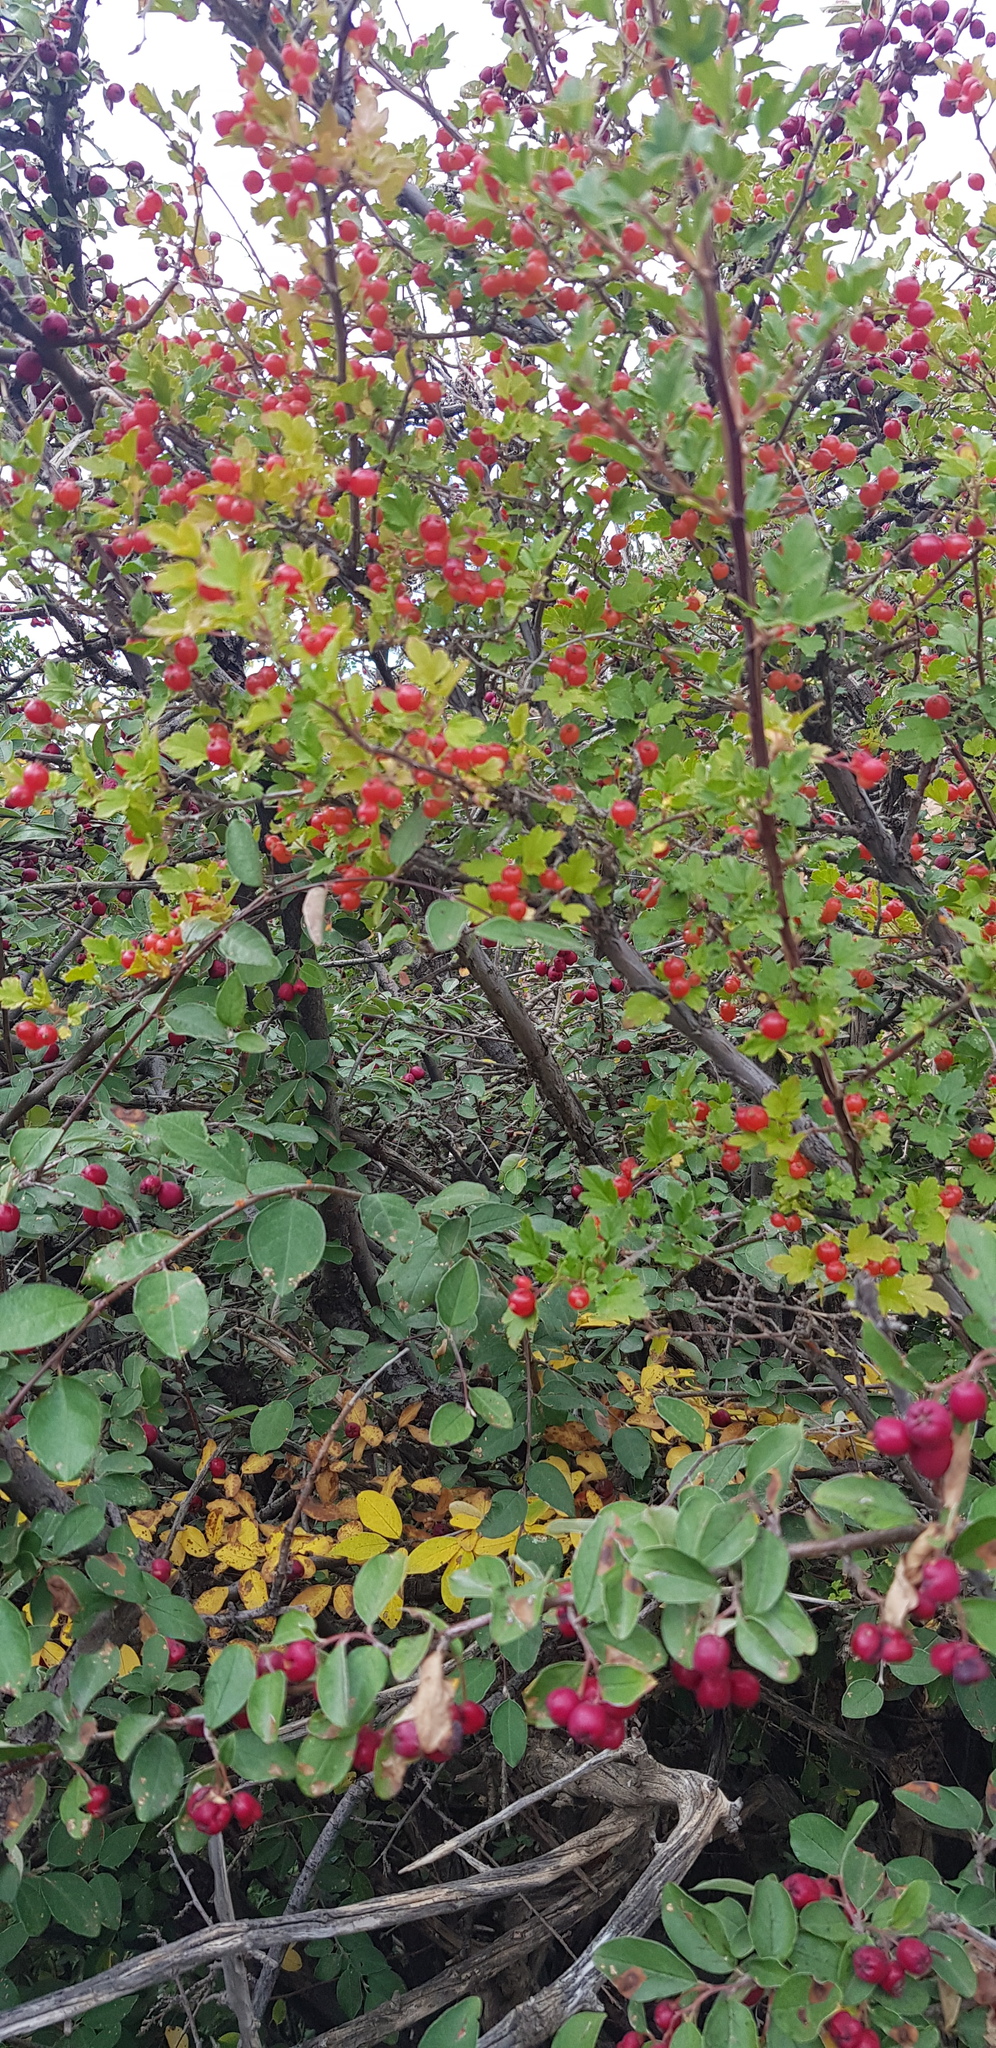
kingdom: Plantae
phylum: Tracheophyta
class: Magnoliopsida
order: Rosales
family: Rosaceae
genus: Crataegus
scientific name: Crataegus sanguinea
